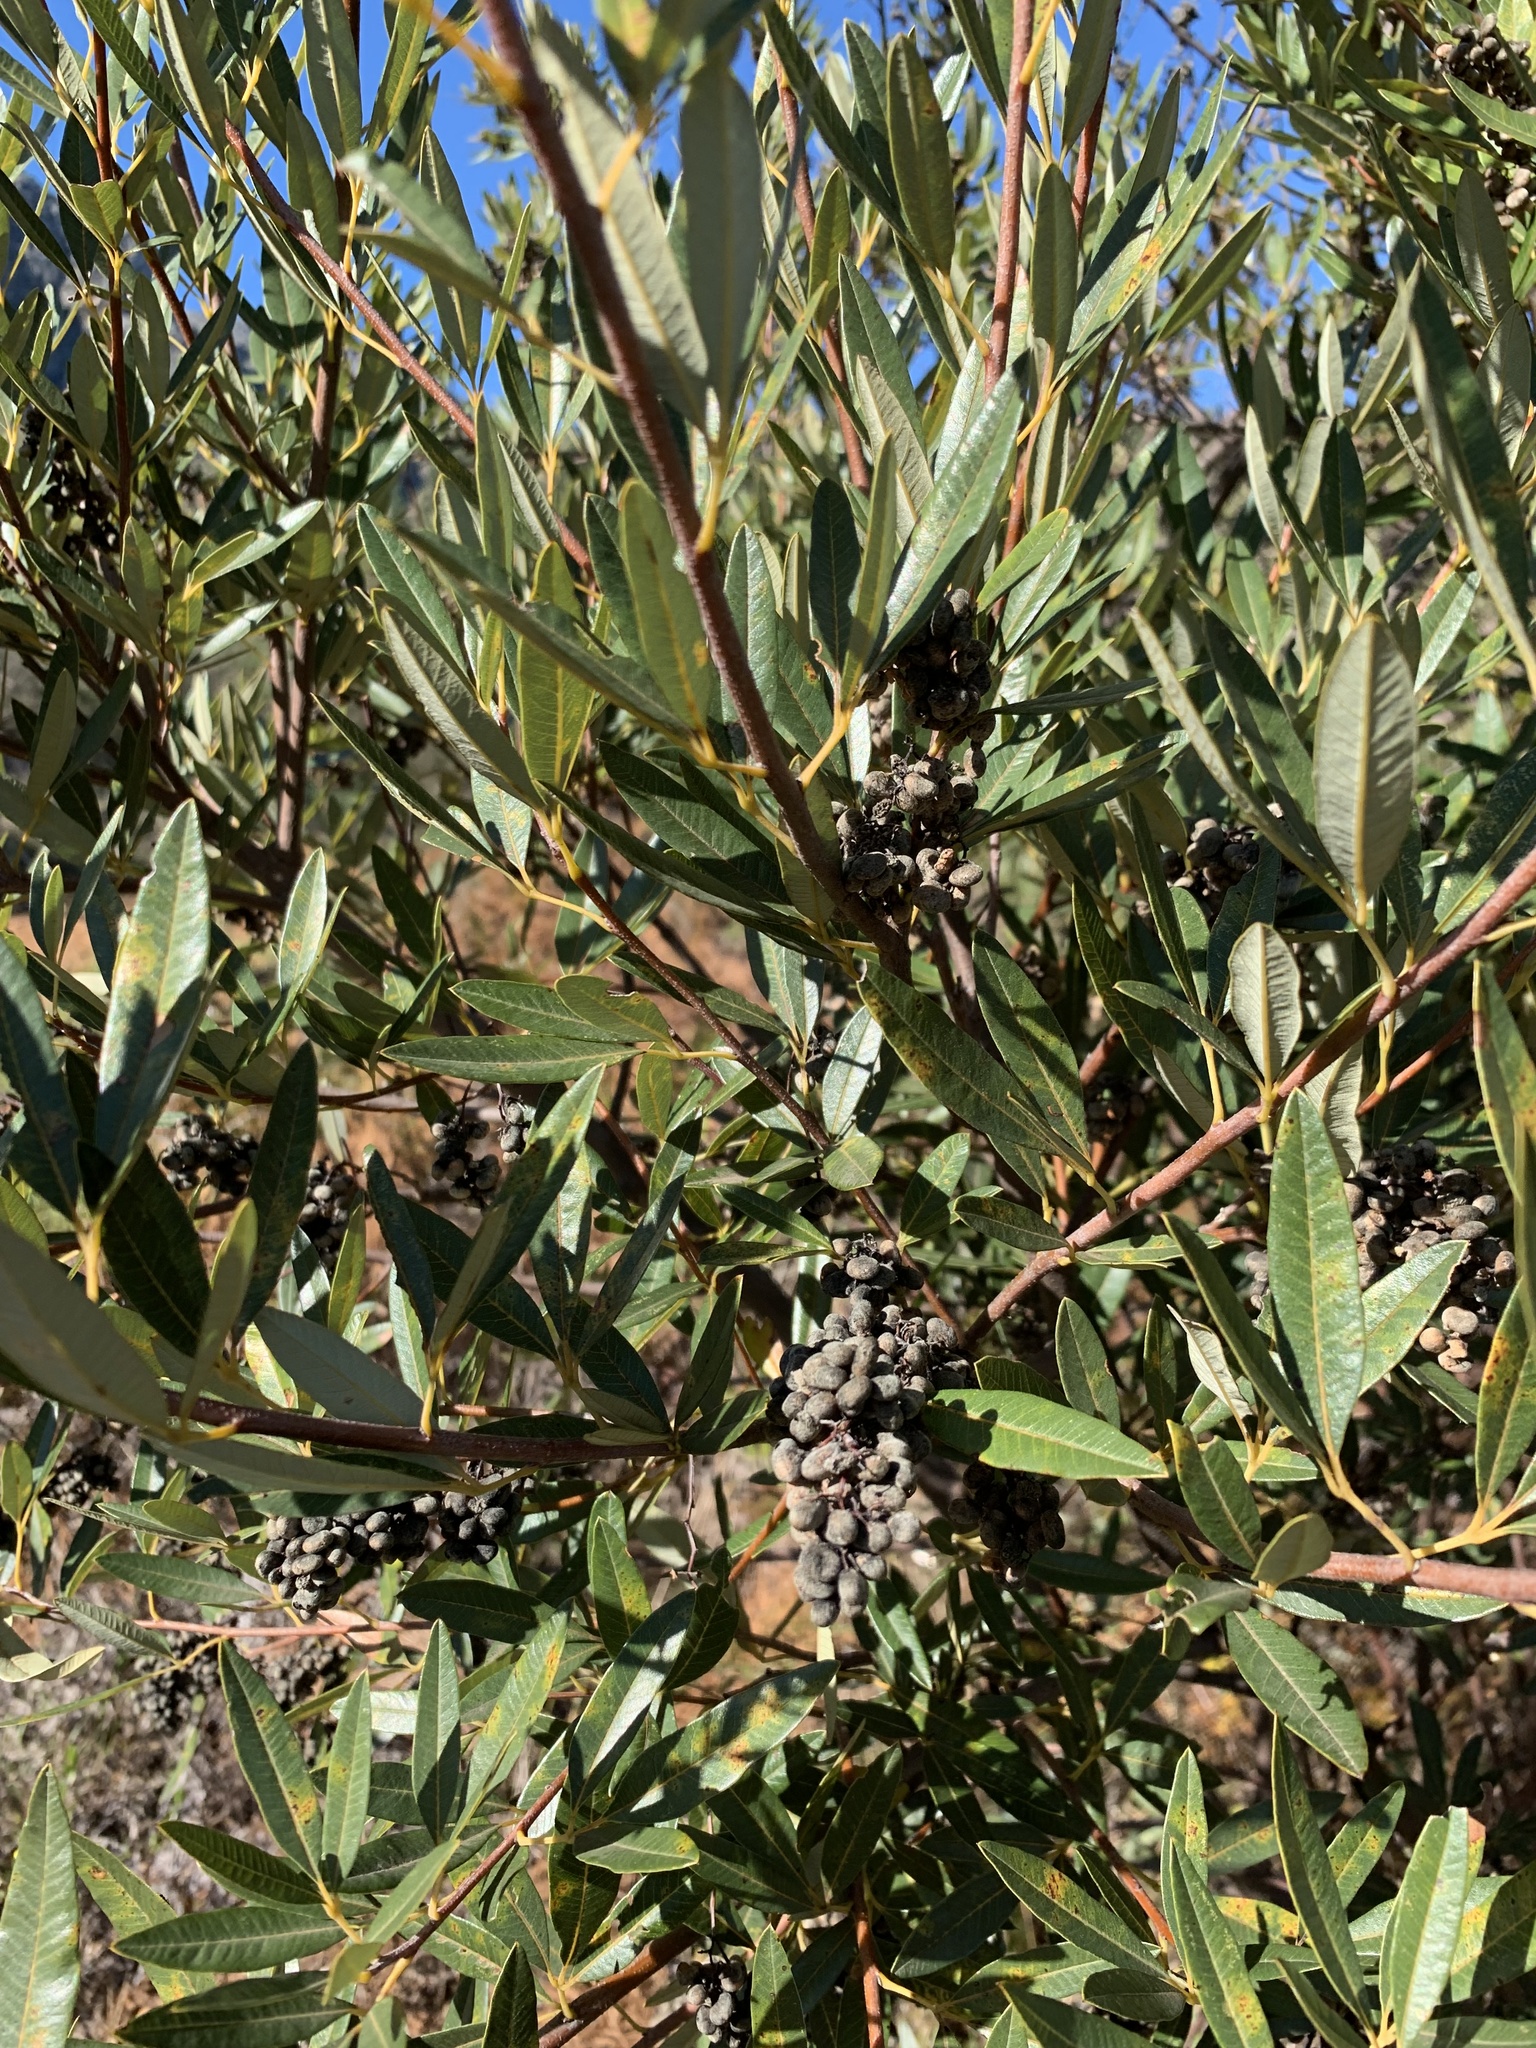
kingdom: Plantae
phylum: Tracheophyta
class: Magnoliopsida
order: Sapindales
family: Anacardiaceae
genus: Searsia
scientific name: Searsia angustifolia
